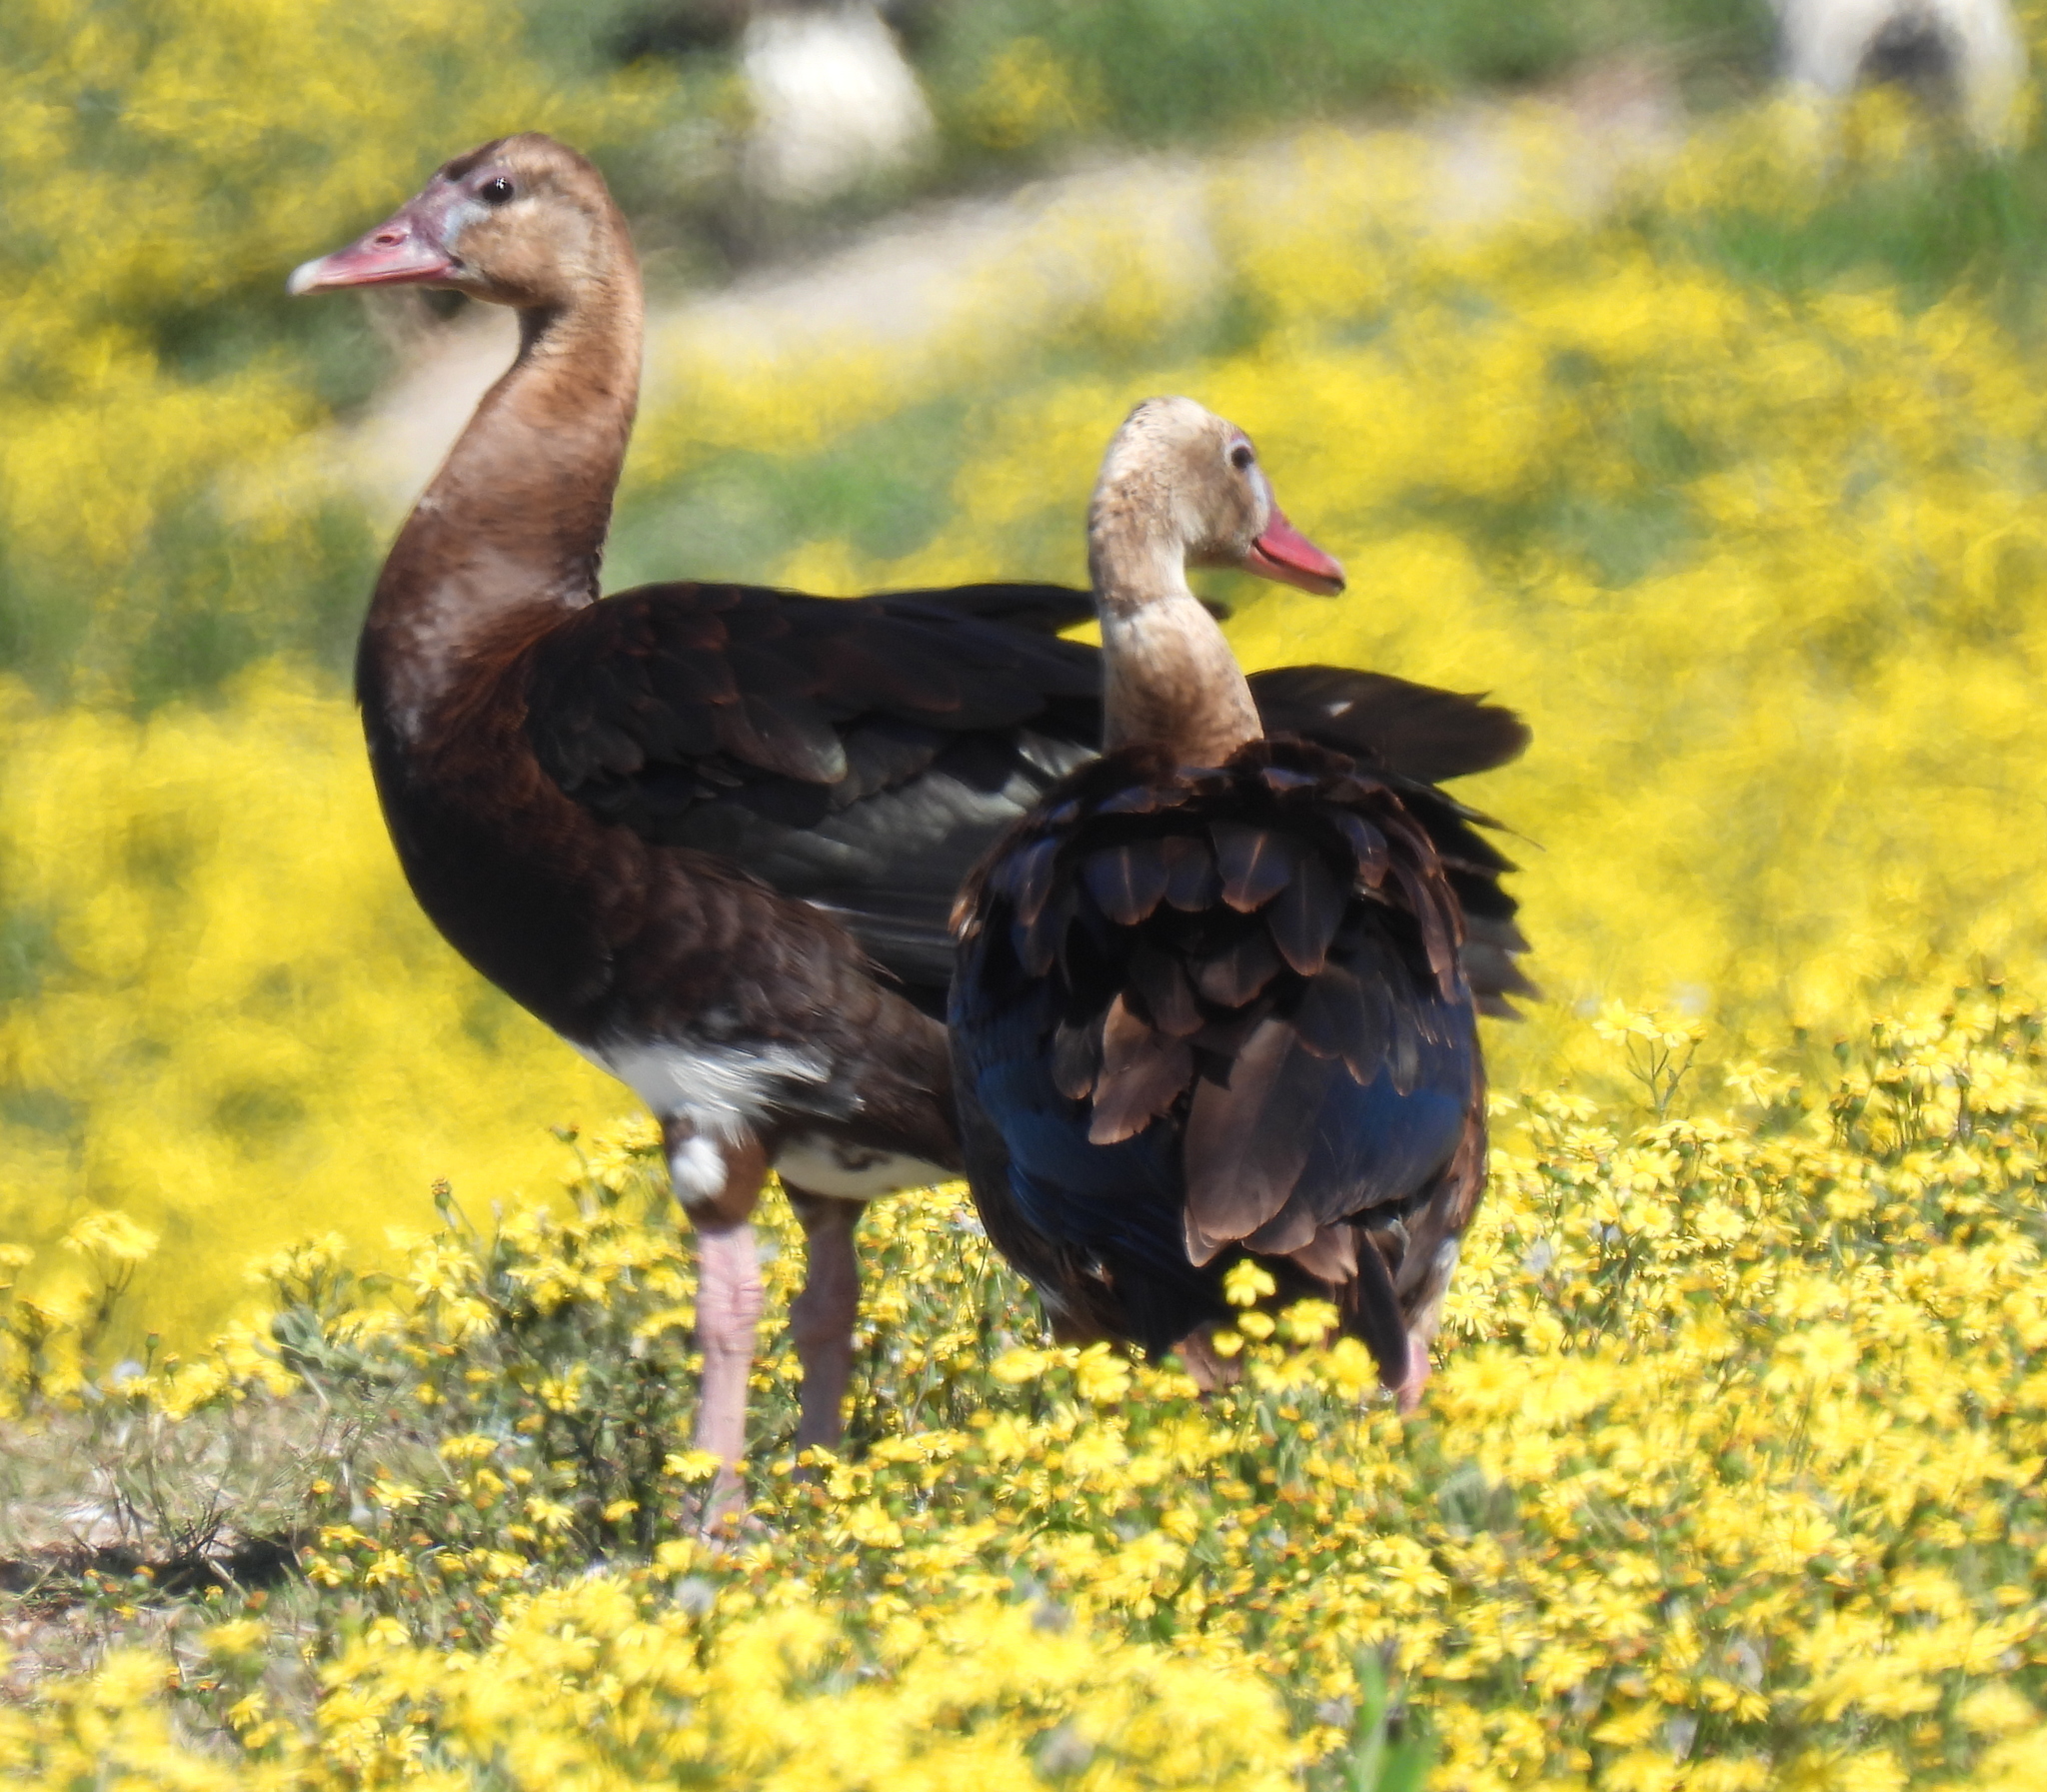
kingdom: Animalia
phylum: Chordata
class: Aves
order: Anseriformes
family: Anatidae
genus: Plectropterus
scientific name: Plectropterus gambensis
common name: Spur-winged goose
